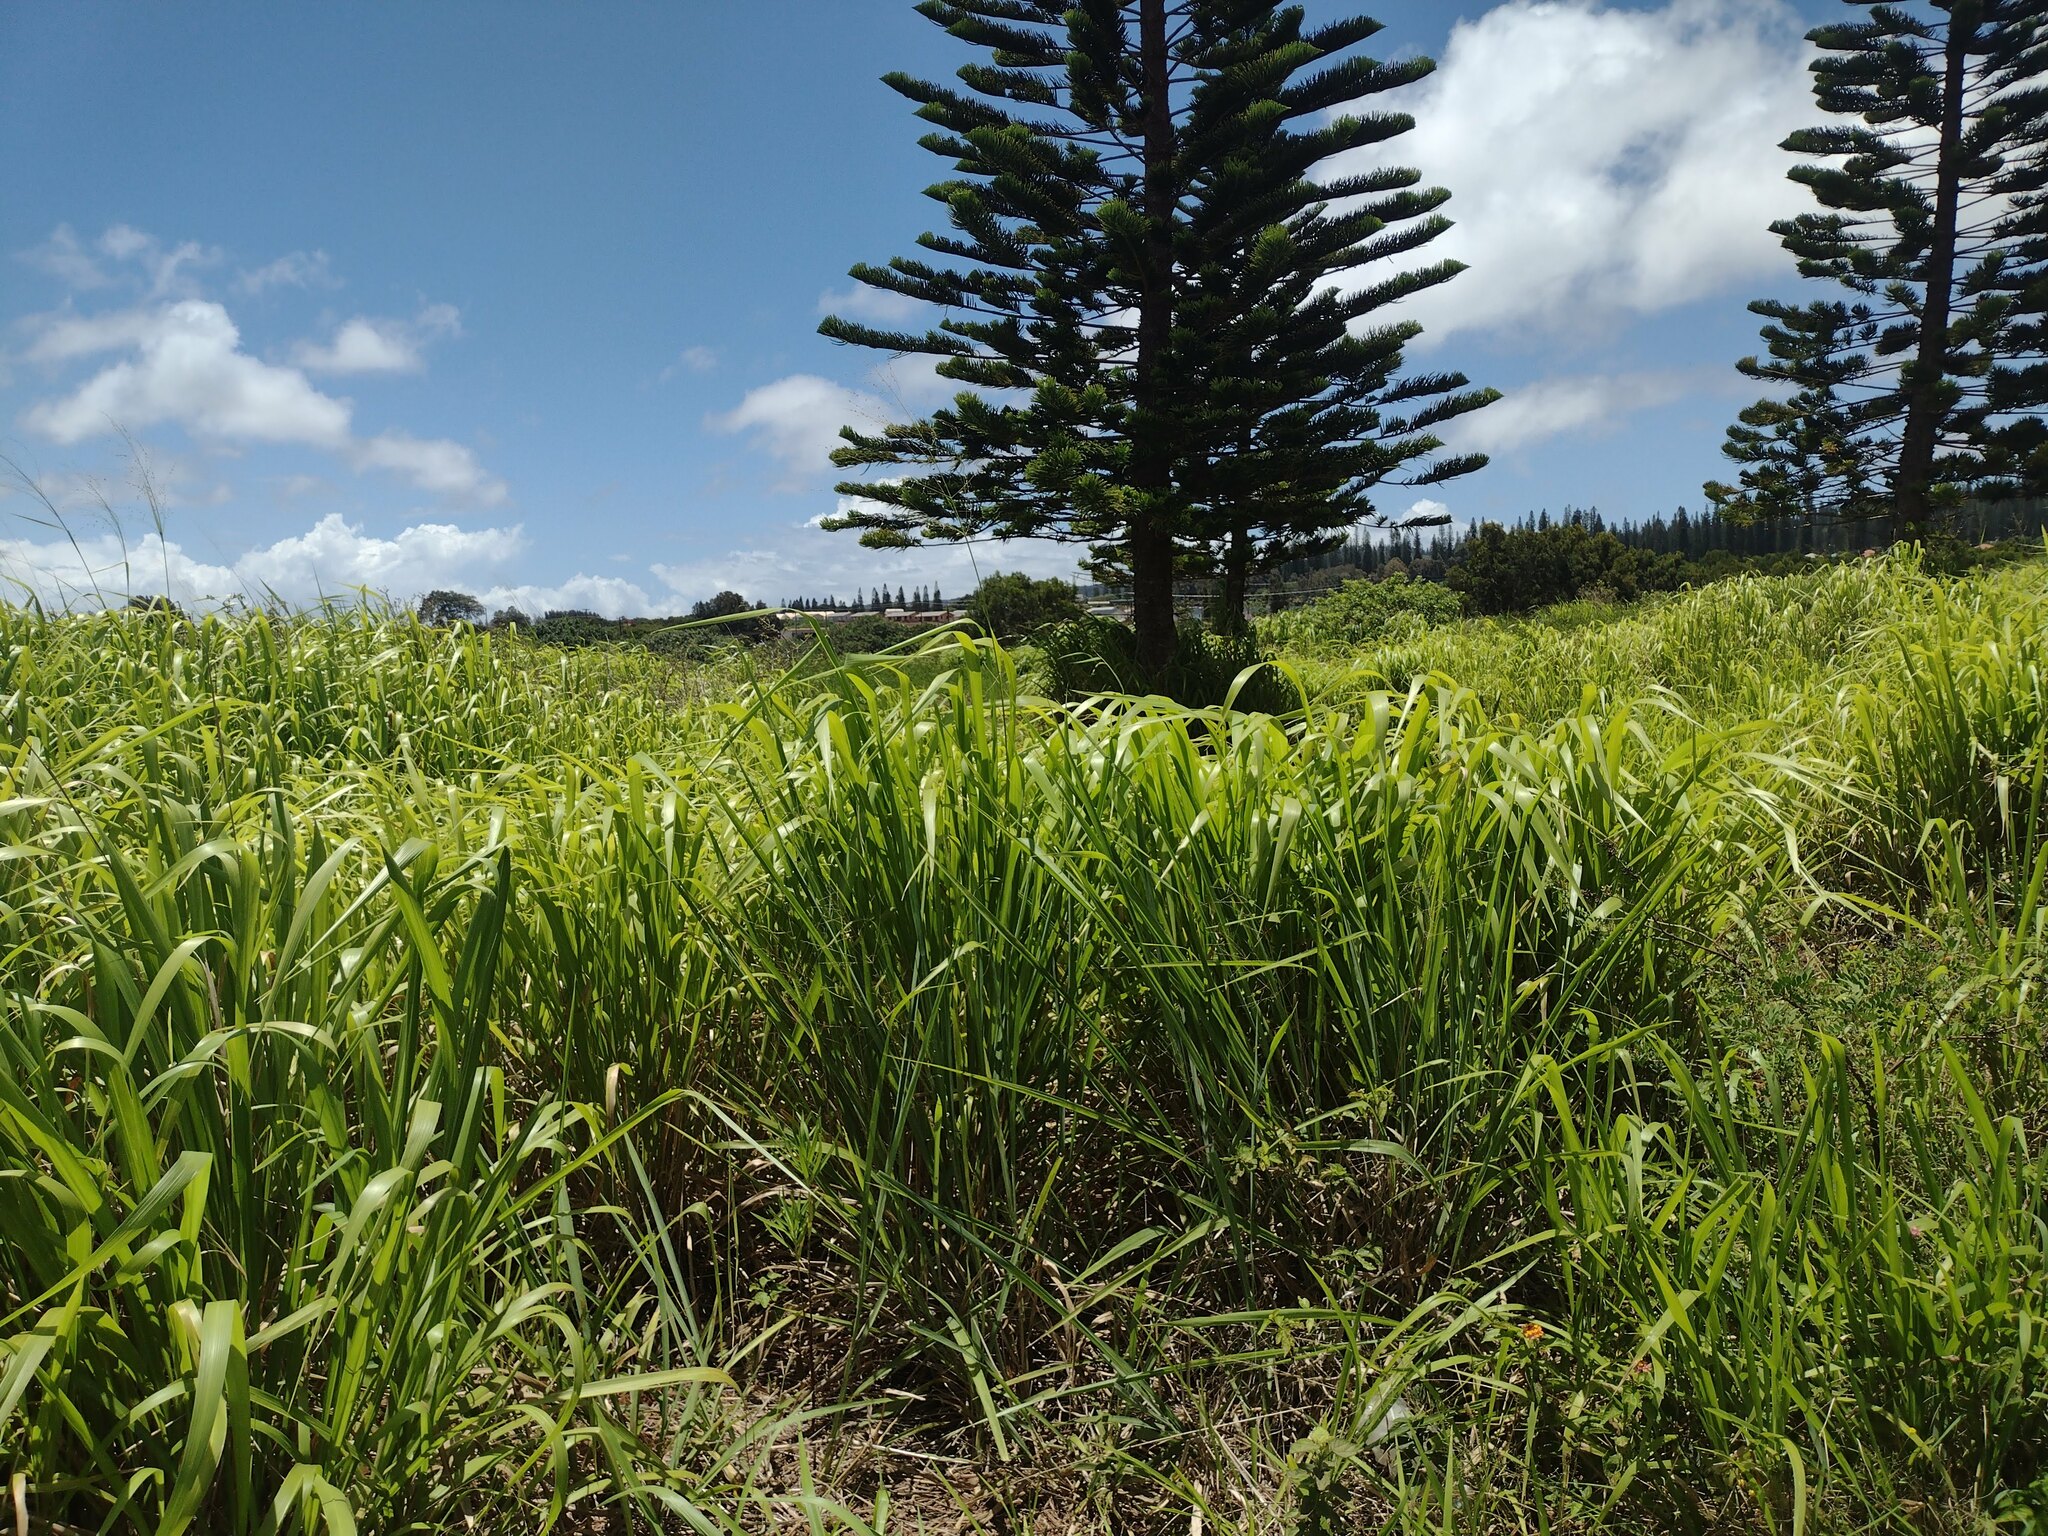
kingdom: Plantae
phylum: Tracheophyta
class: Liliopsida
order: Poales
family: Poaceae
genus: Megathyrsus
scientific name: Megathyrsus maximus
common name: Guineagrass
